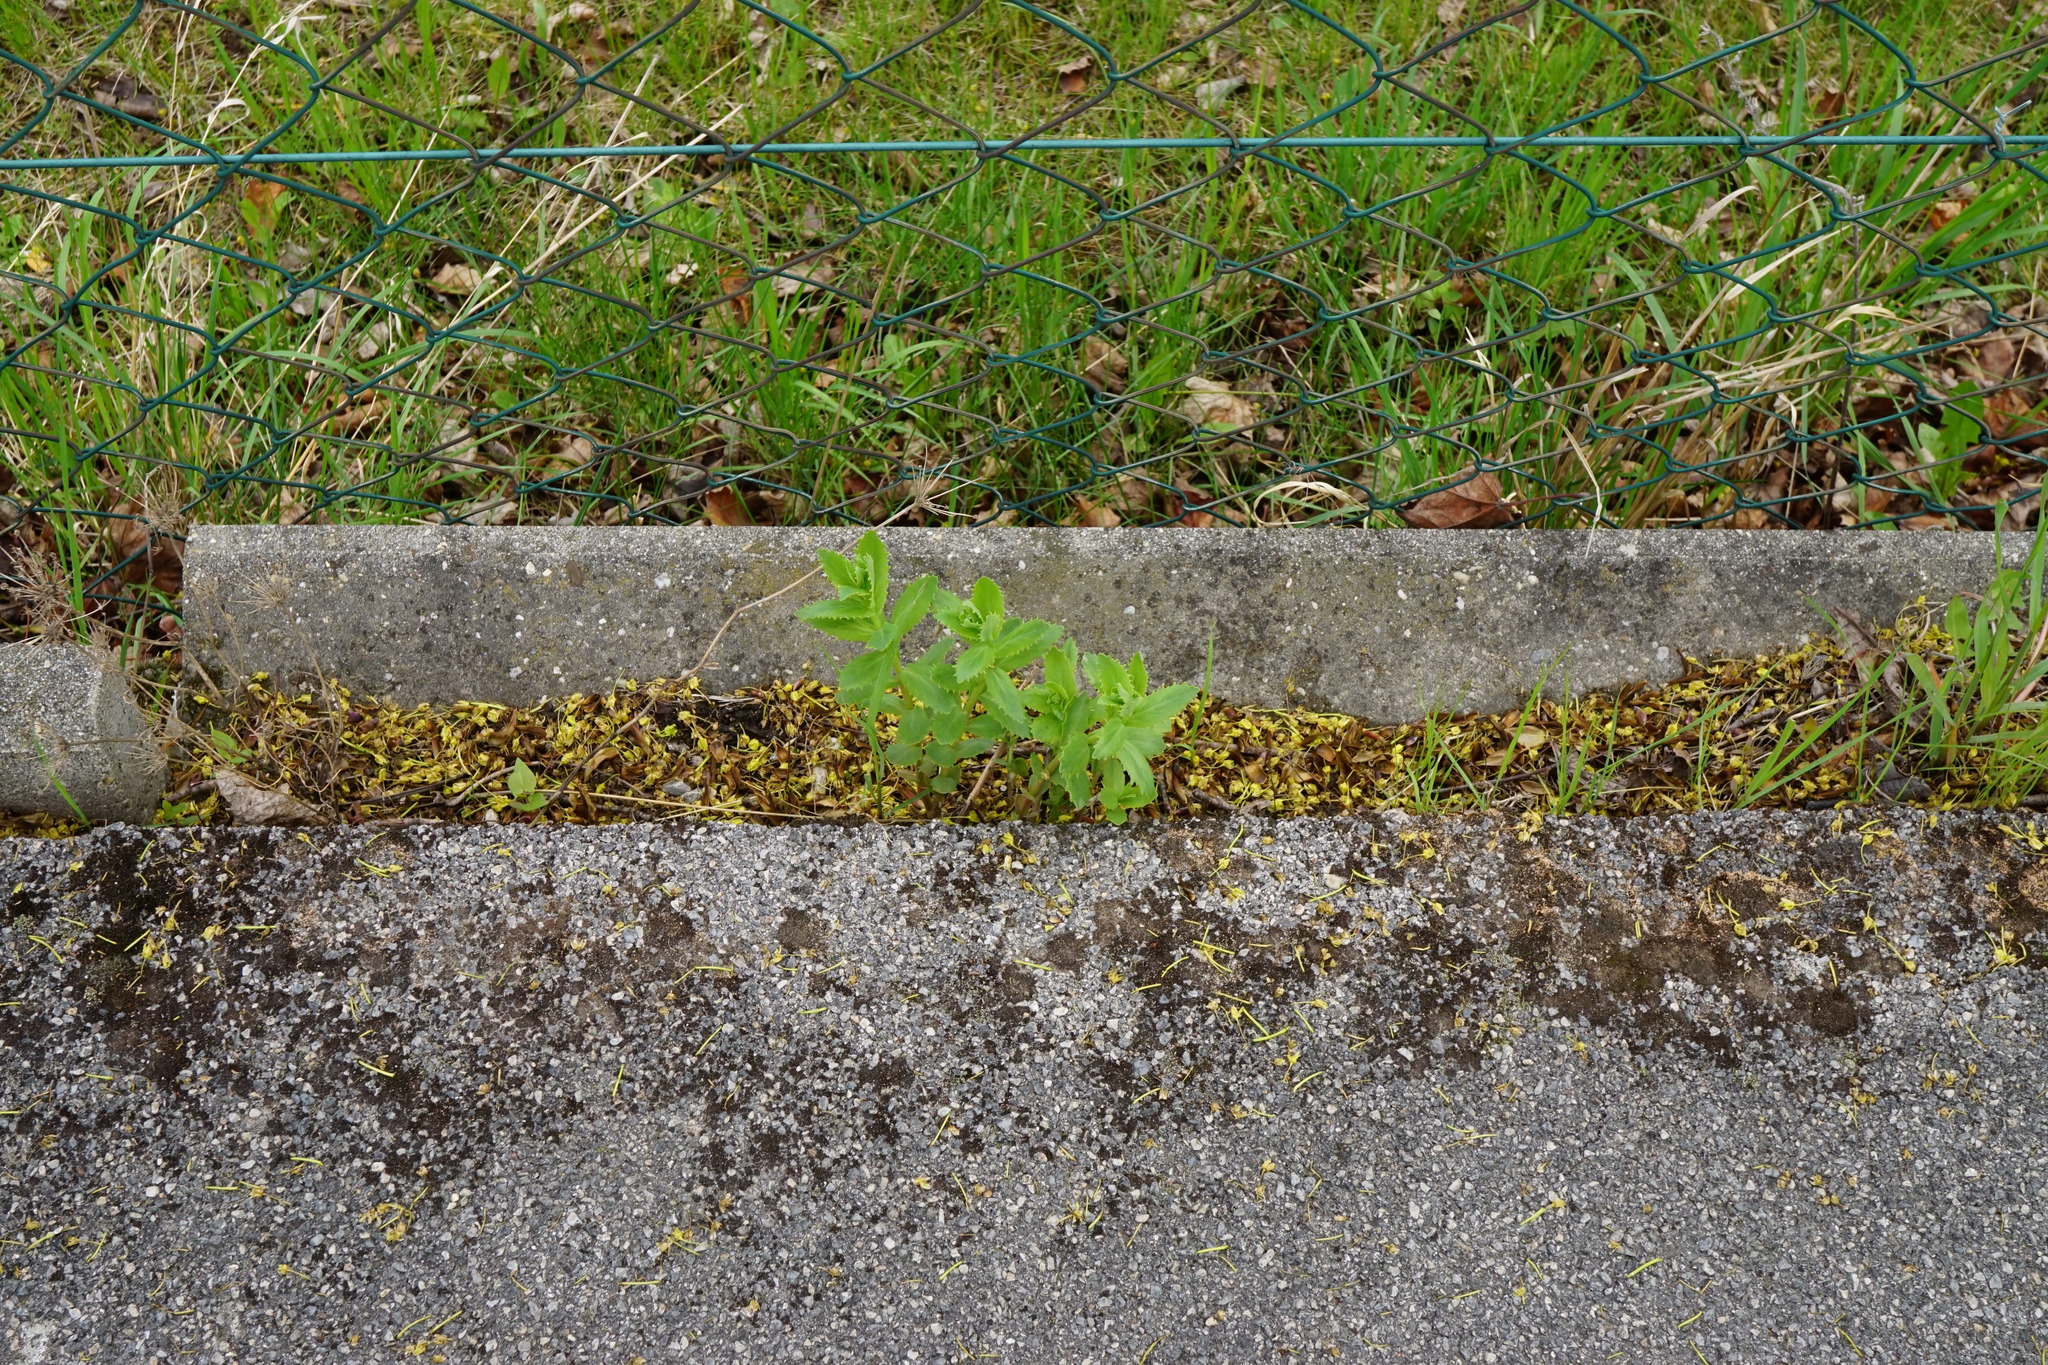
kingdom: Plantae
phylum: Tracheophyta
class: Magnoliopsida
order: Saxifragales
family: Crassulaceae
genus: Hylotelephium
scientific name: Hylotelephium maximum
